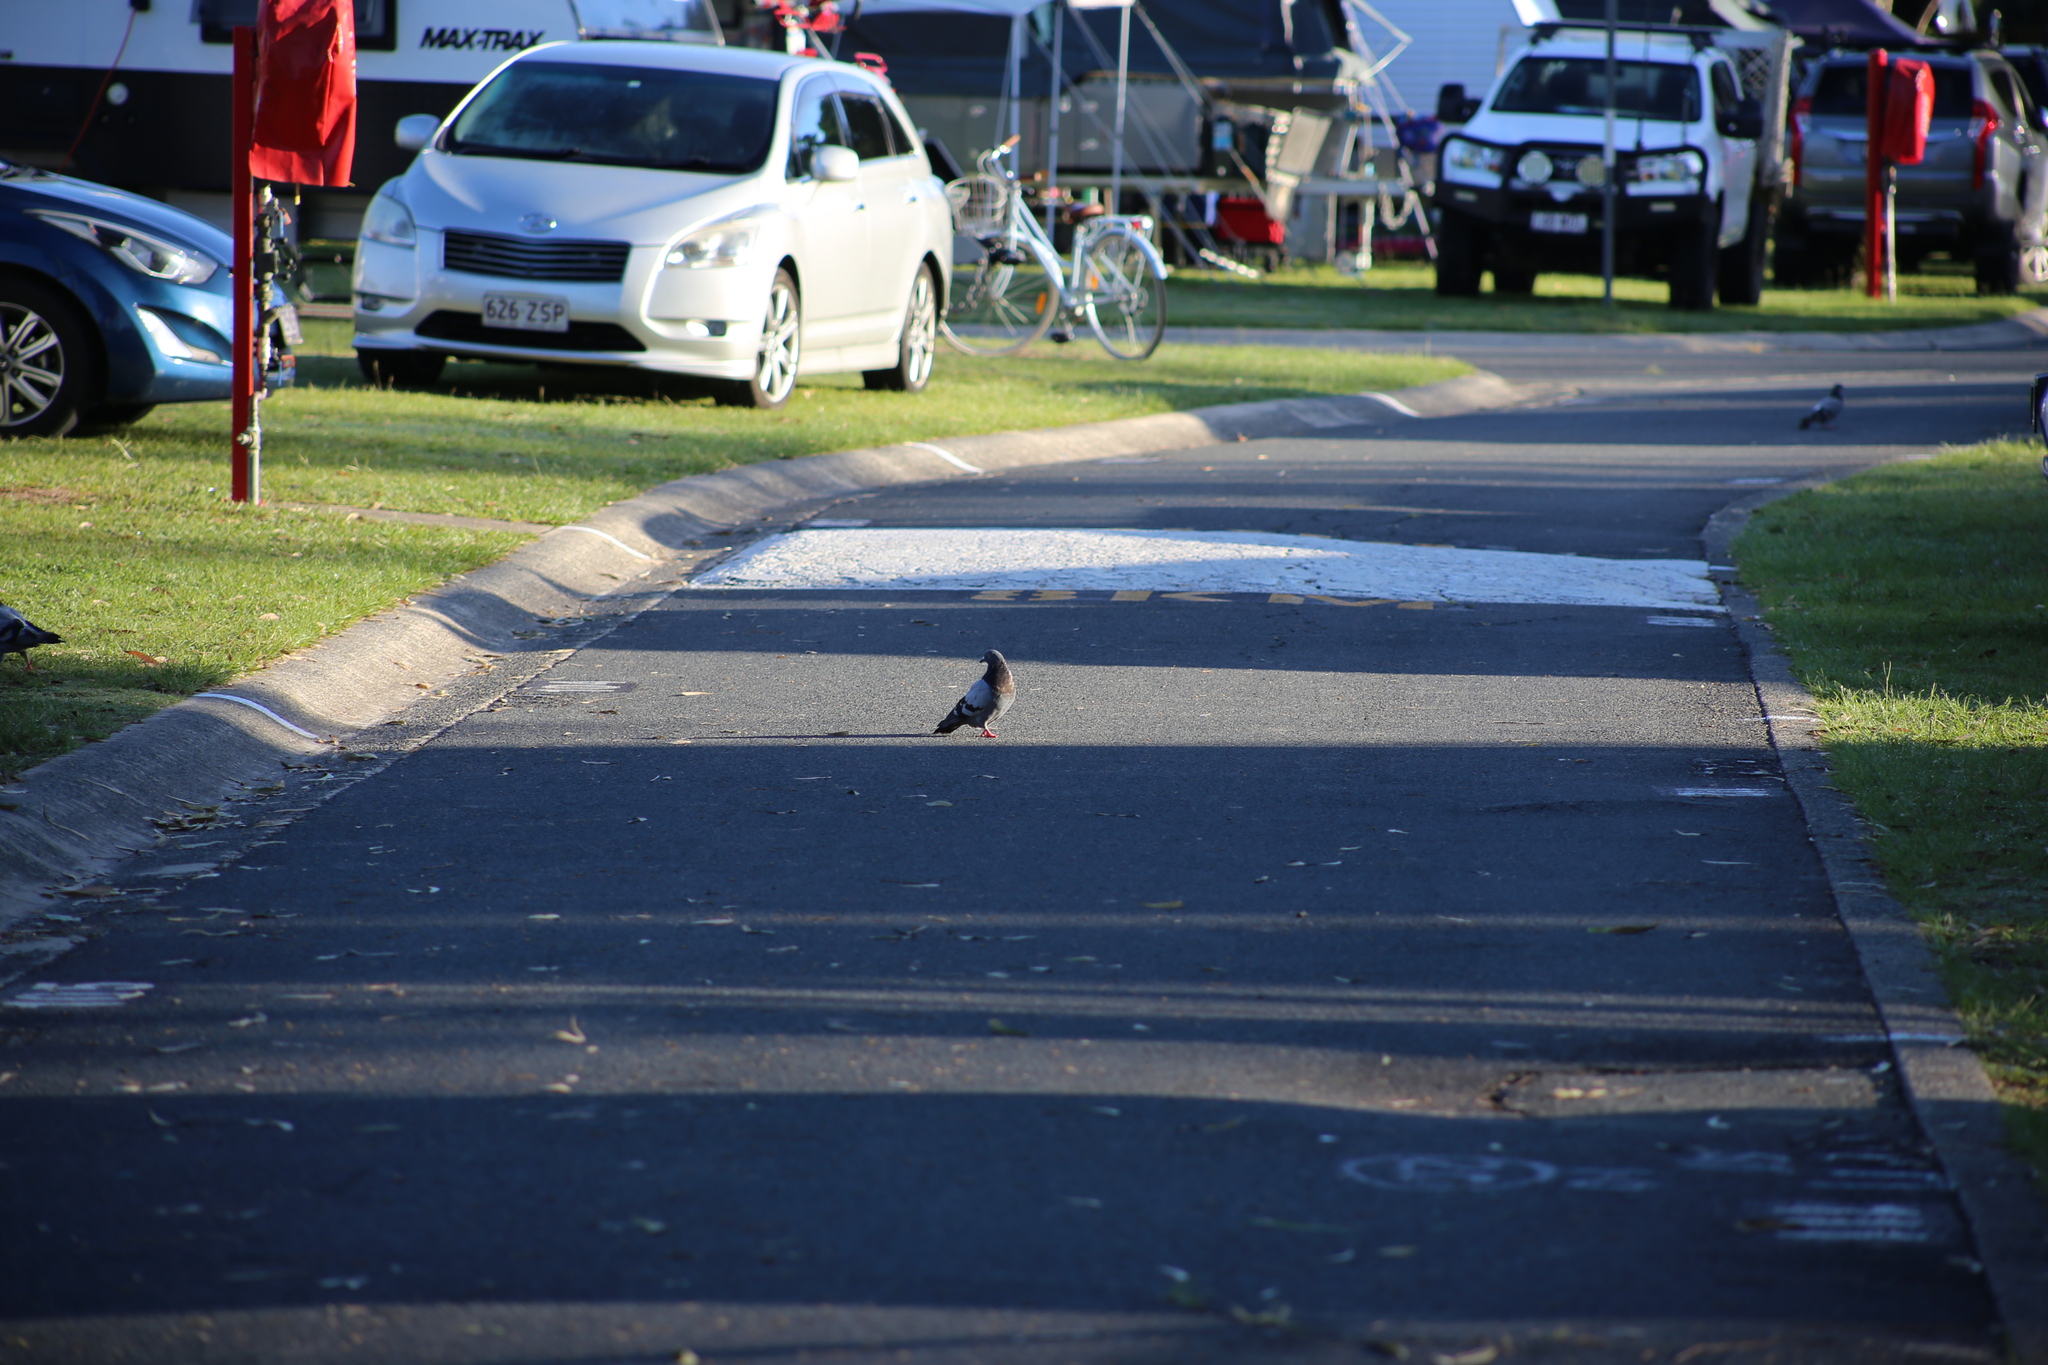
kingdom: Animalia
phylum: Chordata
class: Aves
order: Columbiformes
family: Columbidae
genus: Columba
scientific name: Columba livia
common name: Rock pigeon
